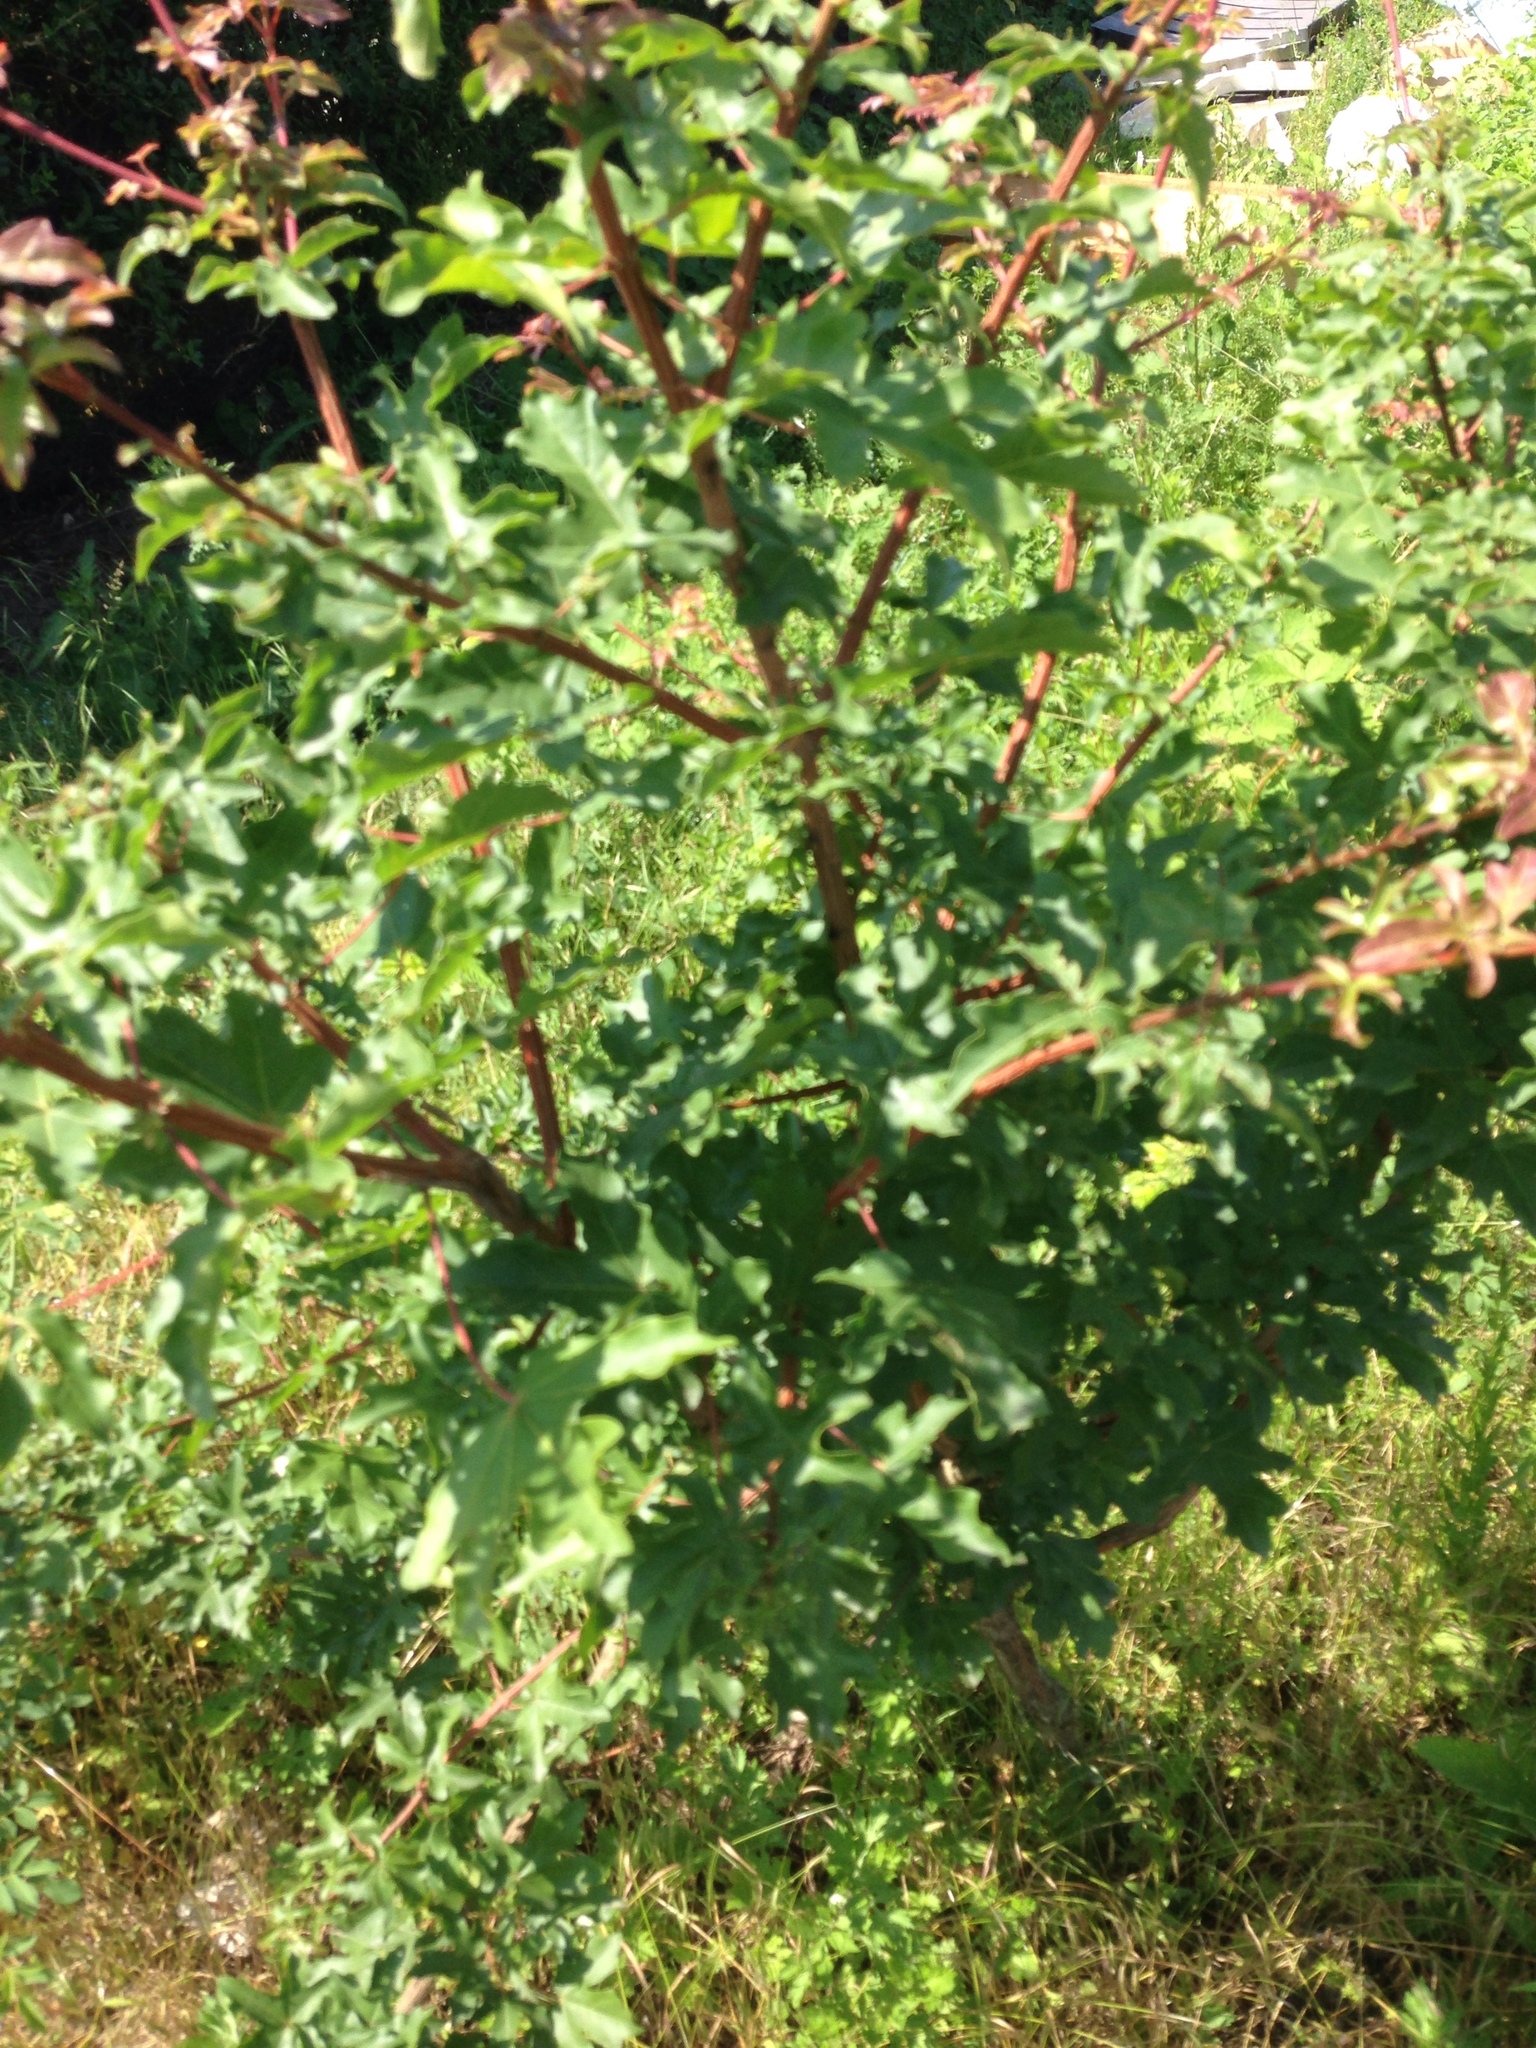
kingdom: Plantae
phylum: Tracheophyta
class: Magnoliopsida
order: Sapindales
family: Sapindaceae
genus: Acer
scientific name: Acer campestre
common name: Field maple
